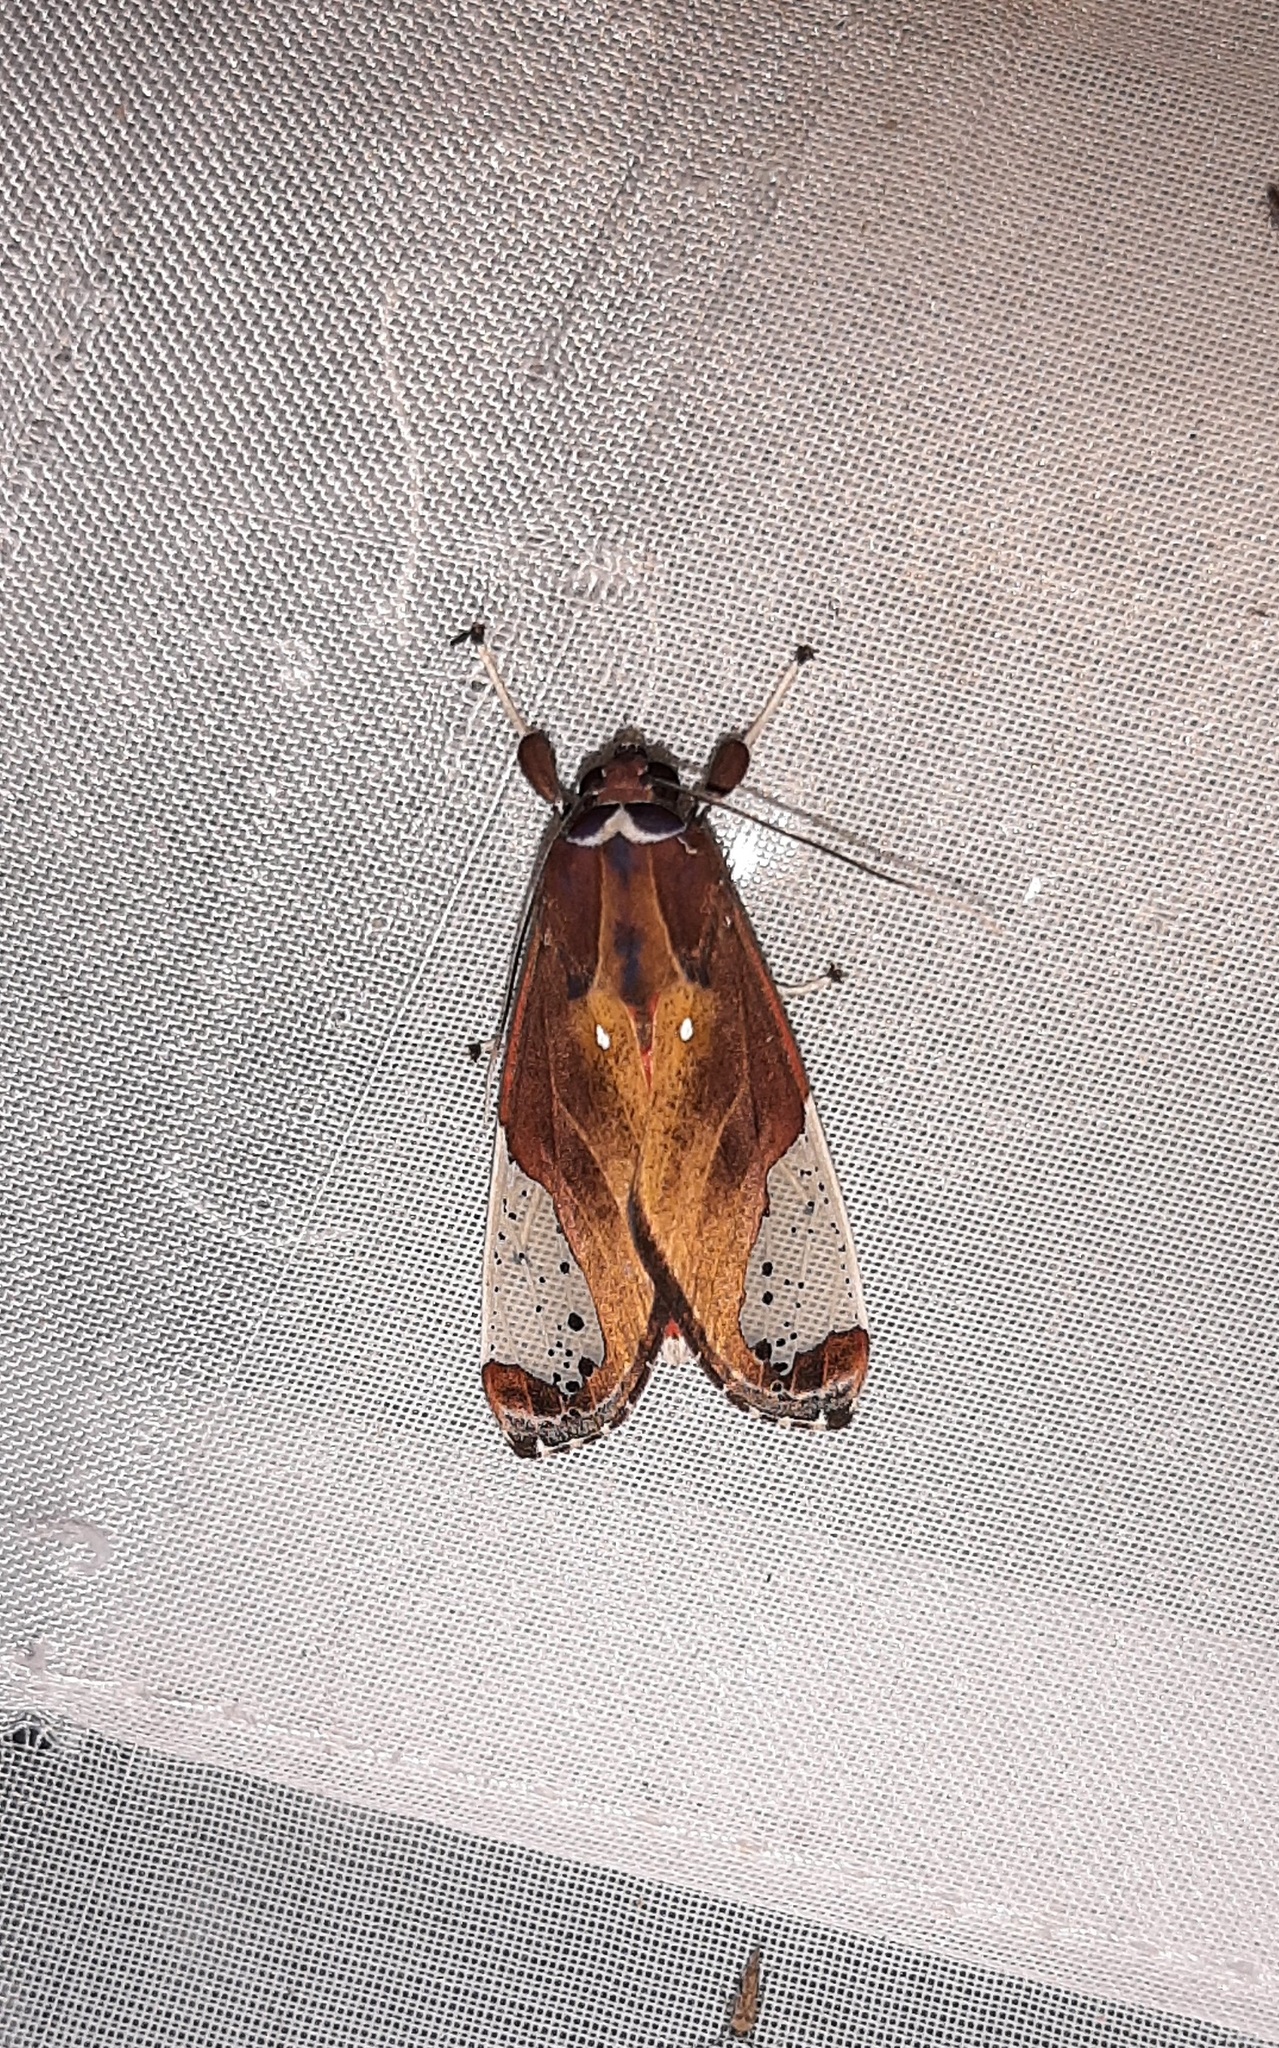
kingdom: Animalia
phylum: Arthropoda
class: Insecta
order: Lepidoptera
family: Erebidae
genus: Bertholdia
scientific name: Bertholdia albipuncta
